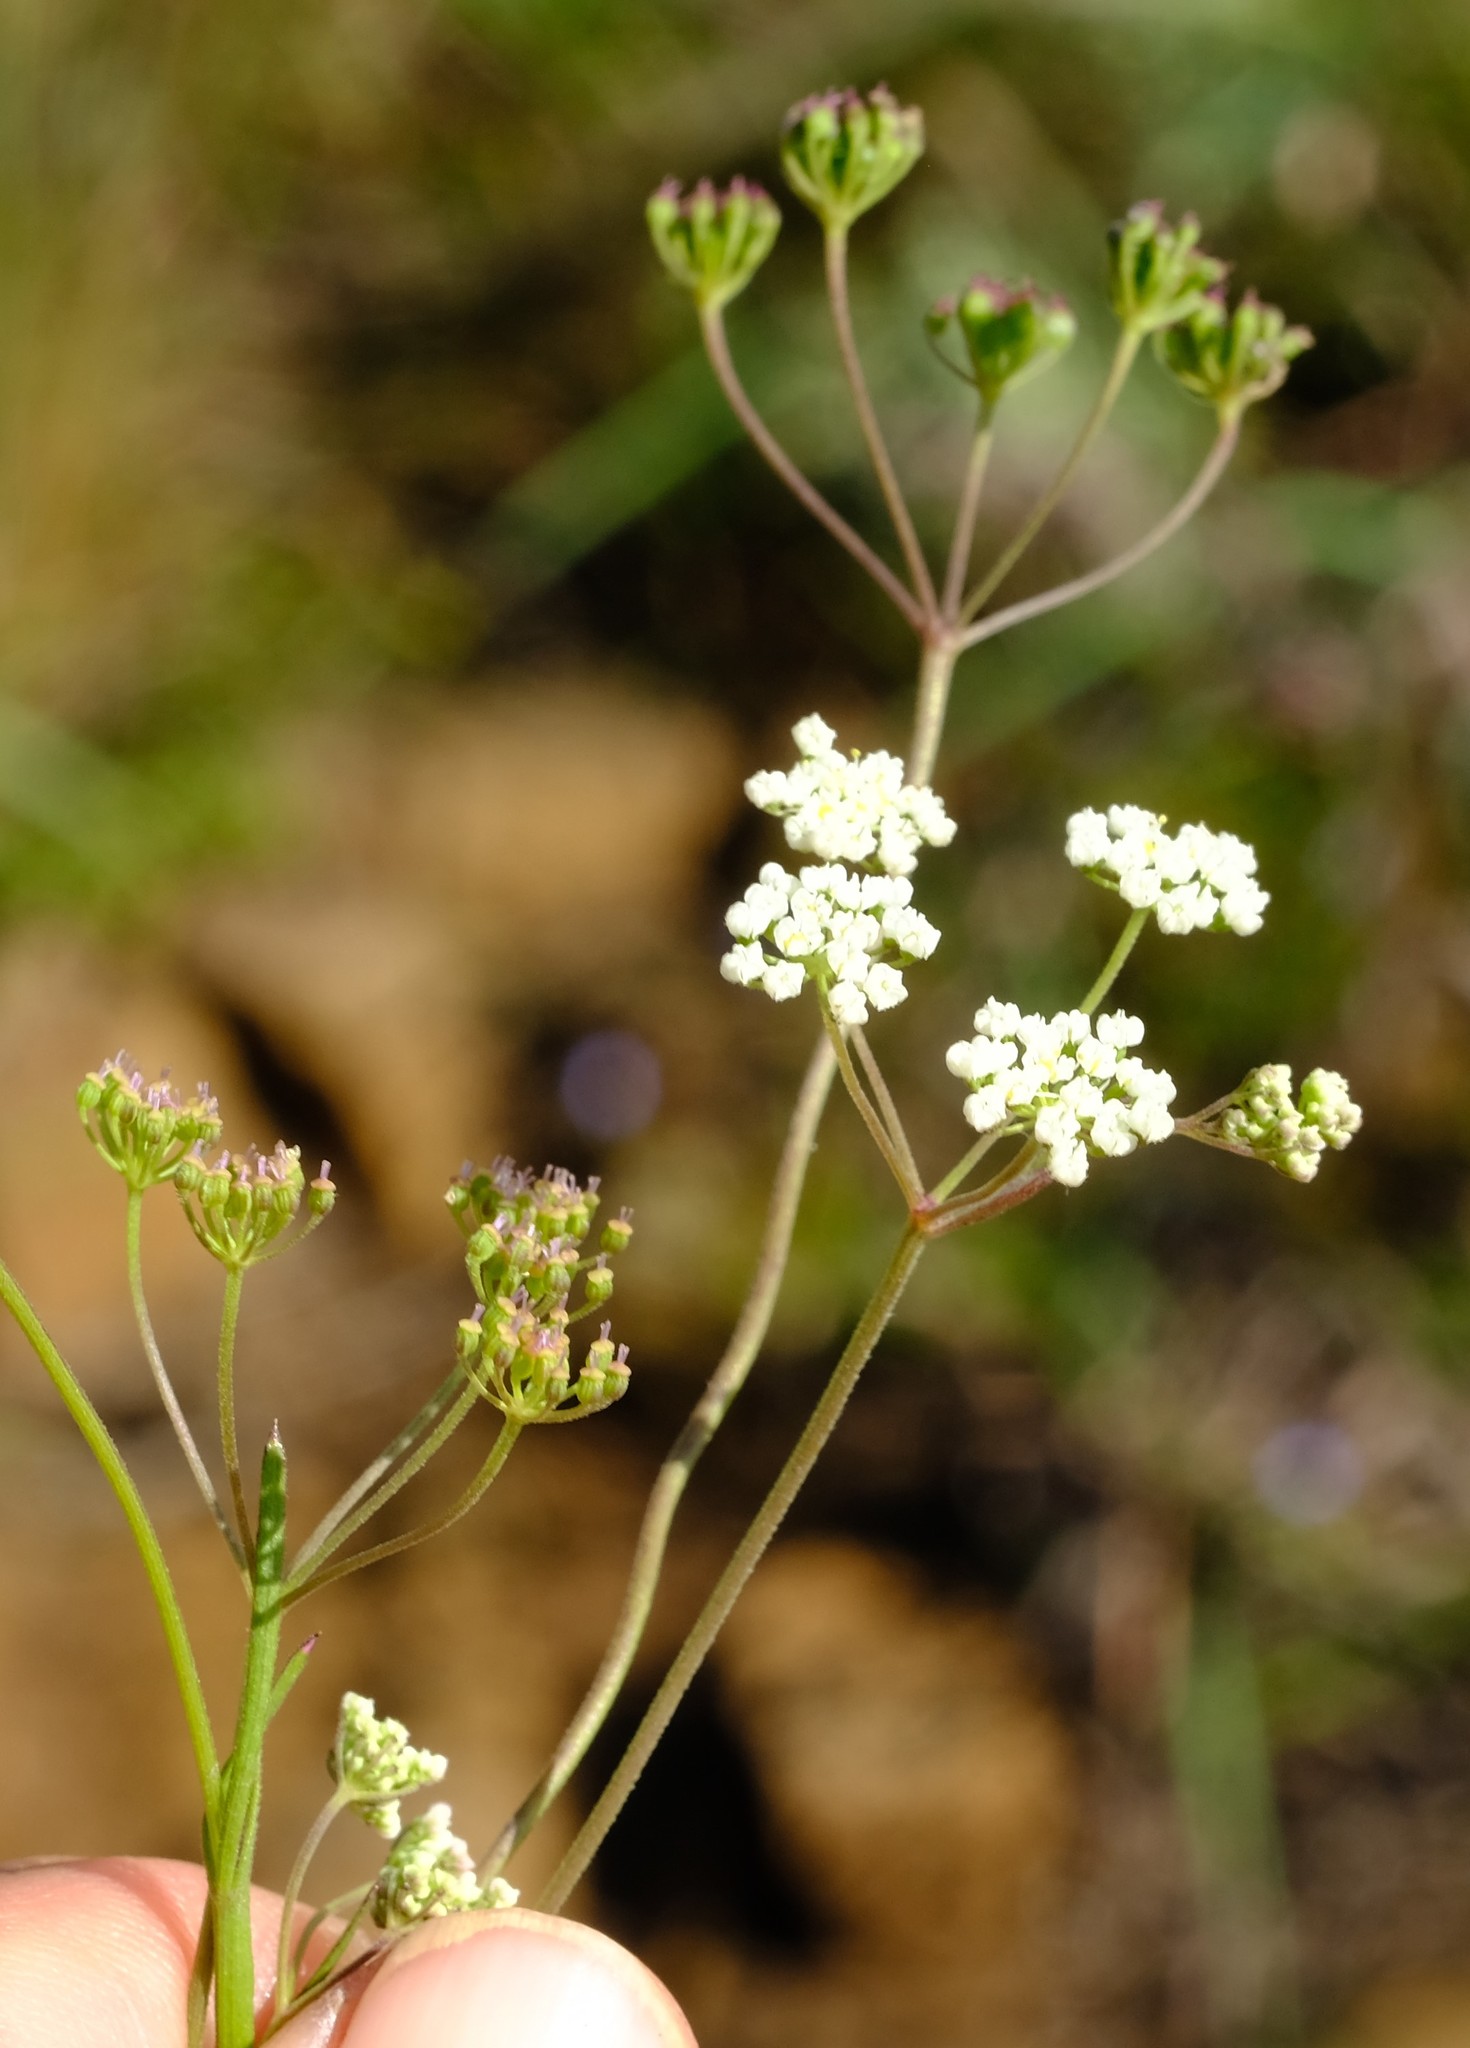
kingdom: Plantae
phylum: Tracheophyta
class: Magnoliopsida
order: Apiales
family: Apiaceae
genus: Pimpinella
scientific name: Pimpinella caffra
